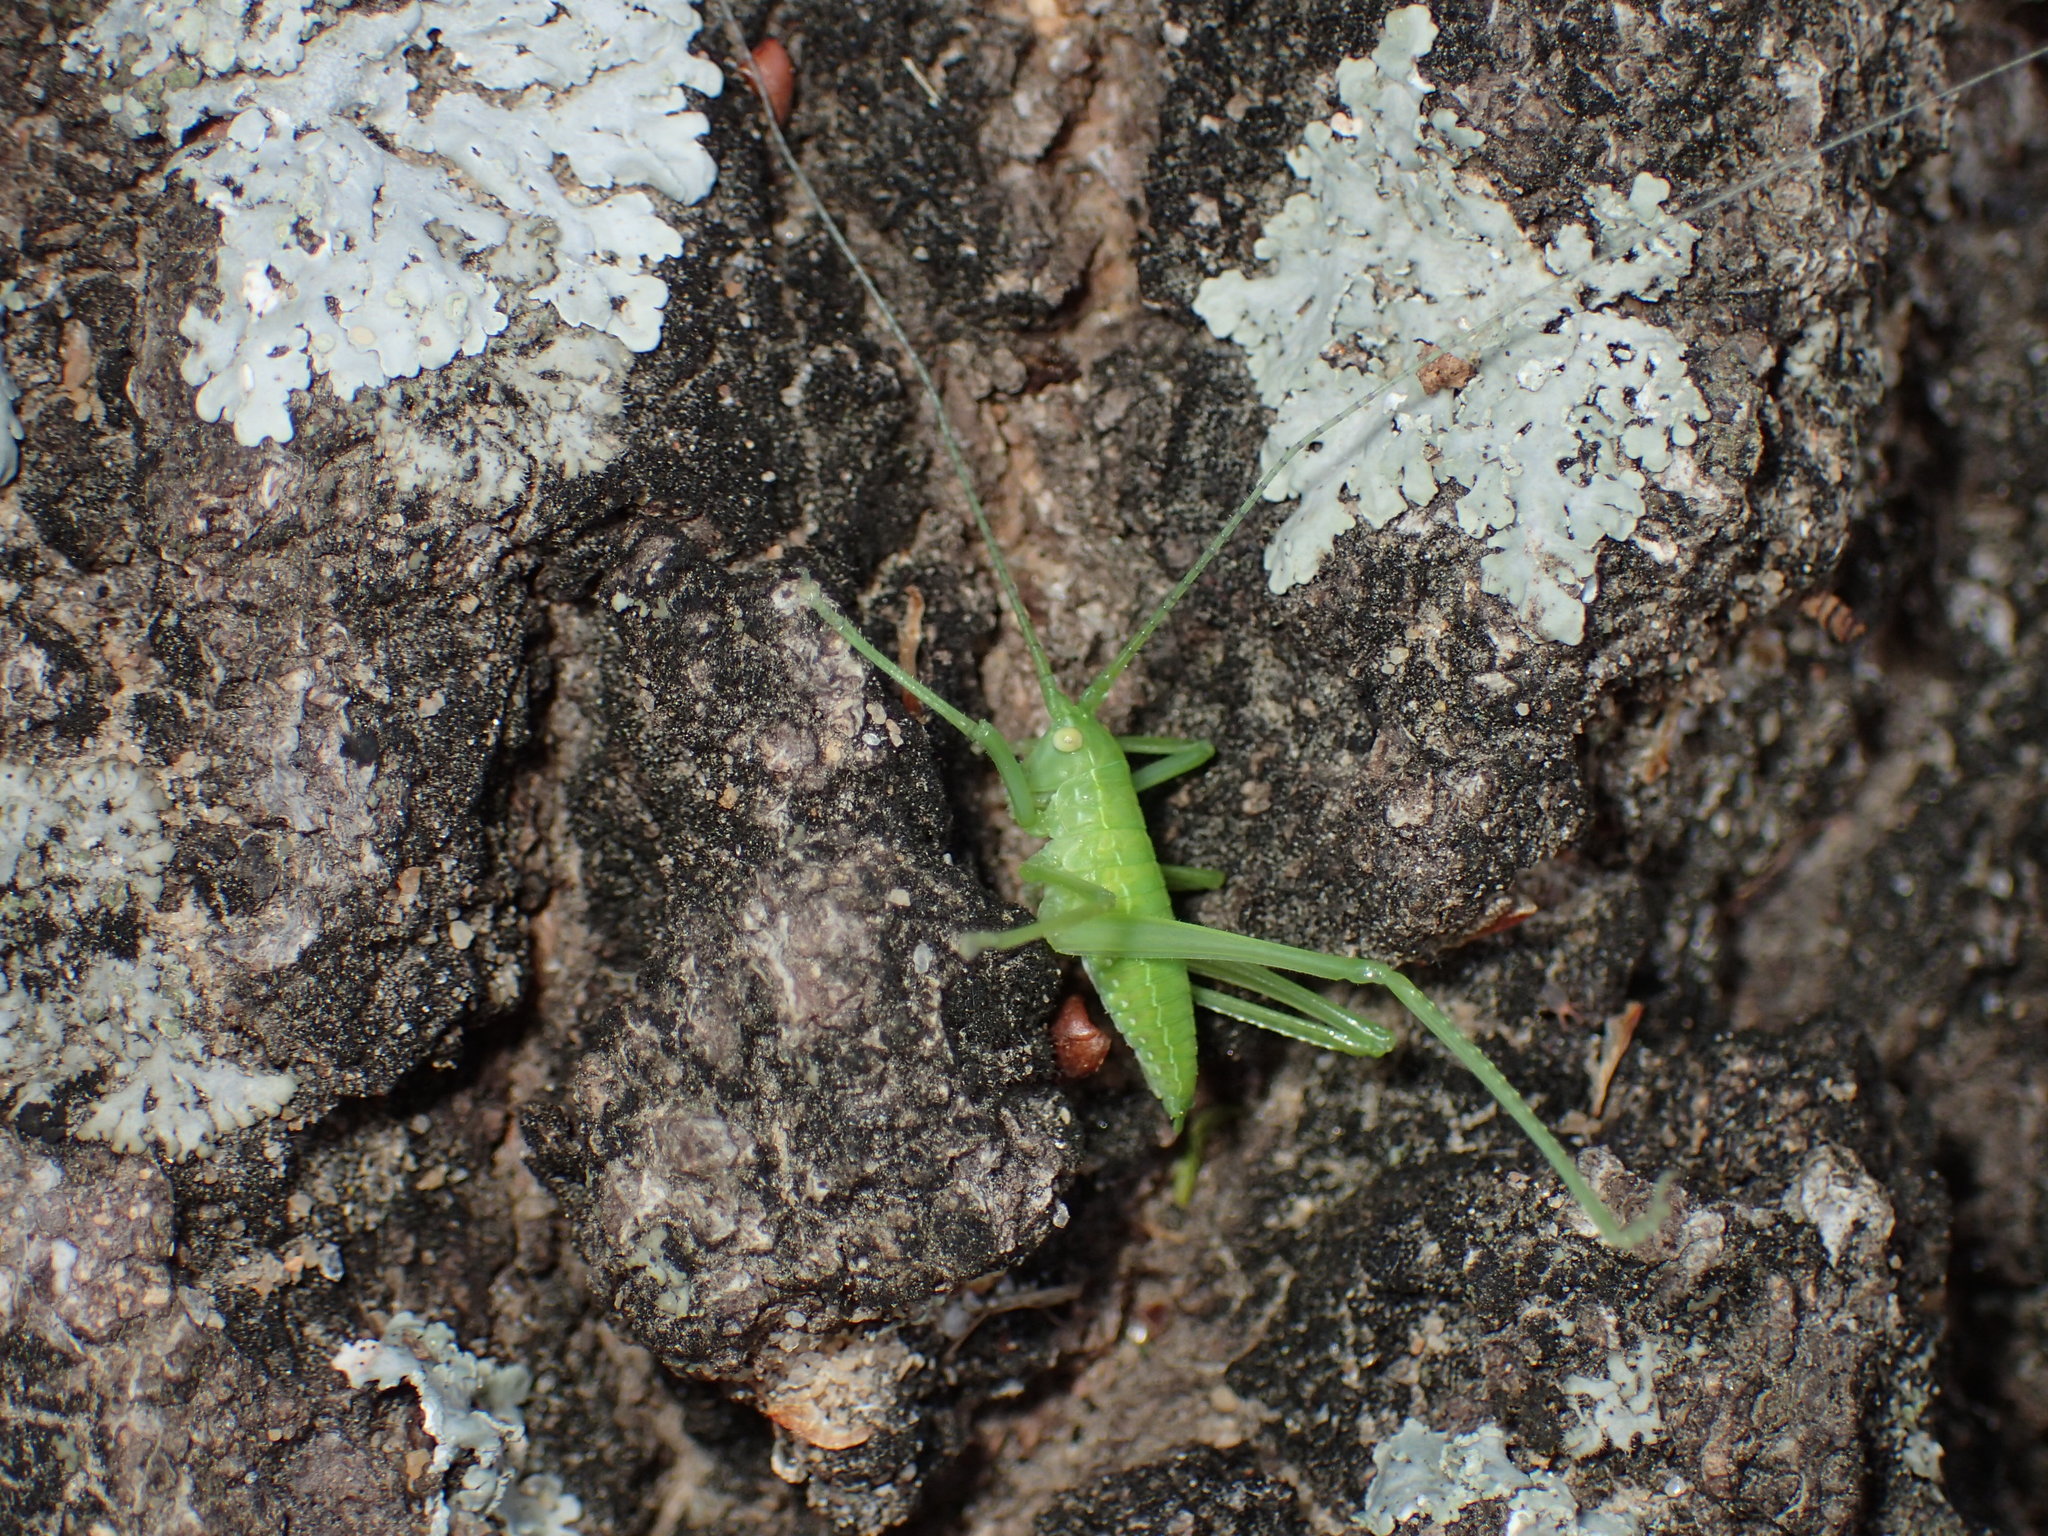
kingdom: Animalia
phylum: Arthropoda
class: Insecta
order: Orthoptera
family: Tettigoniidae
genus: Pterophylla
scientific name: Pterophylla camellifolia
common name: Common true katydid
